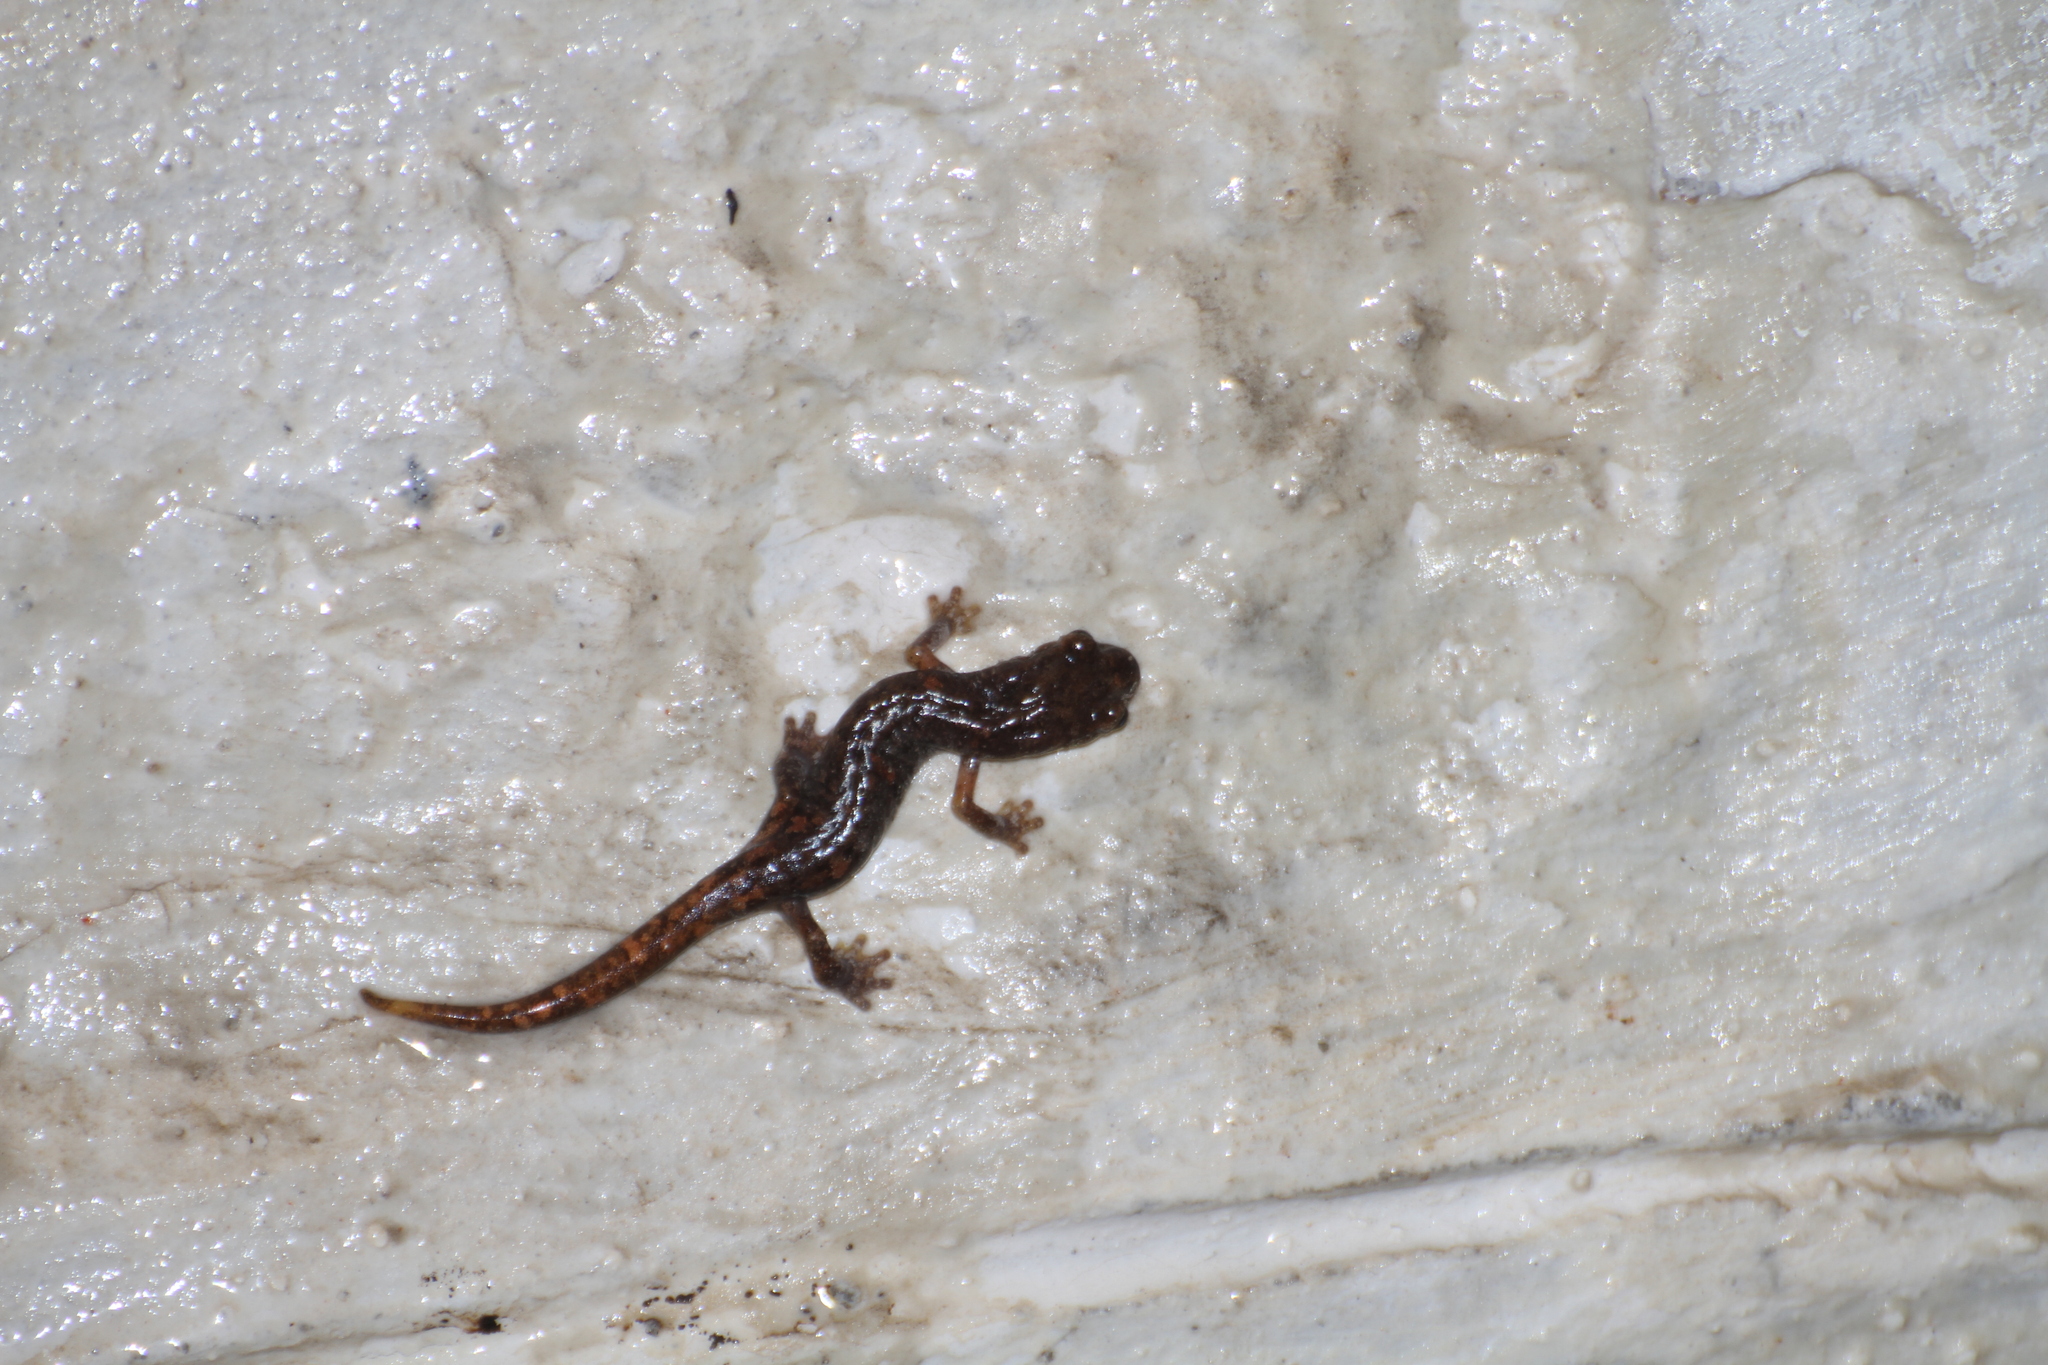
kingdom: Animalia
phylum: Chordata
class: Amphibia
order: Caudata
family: Plethodontidae
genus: Speleomantes
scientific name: Speleomantes strinatii
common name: French cave salamander
